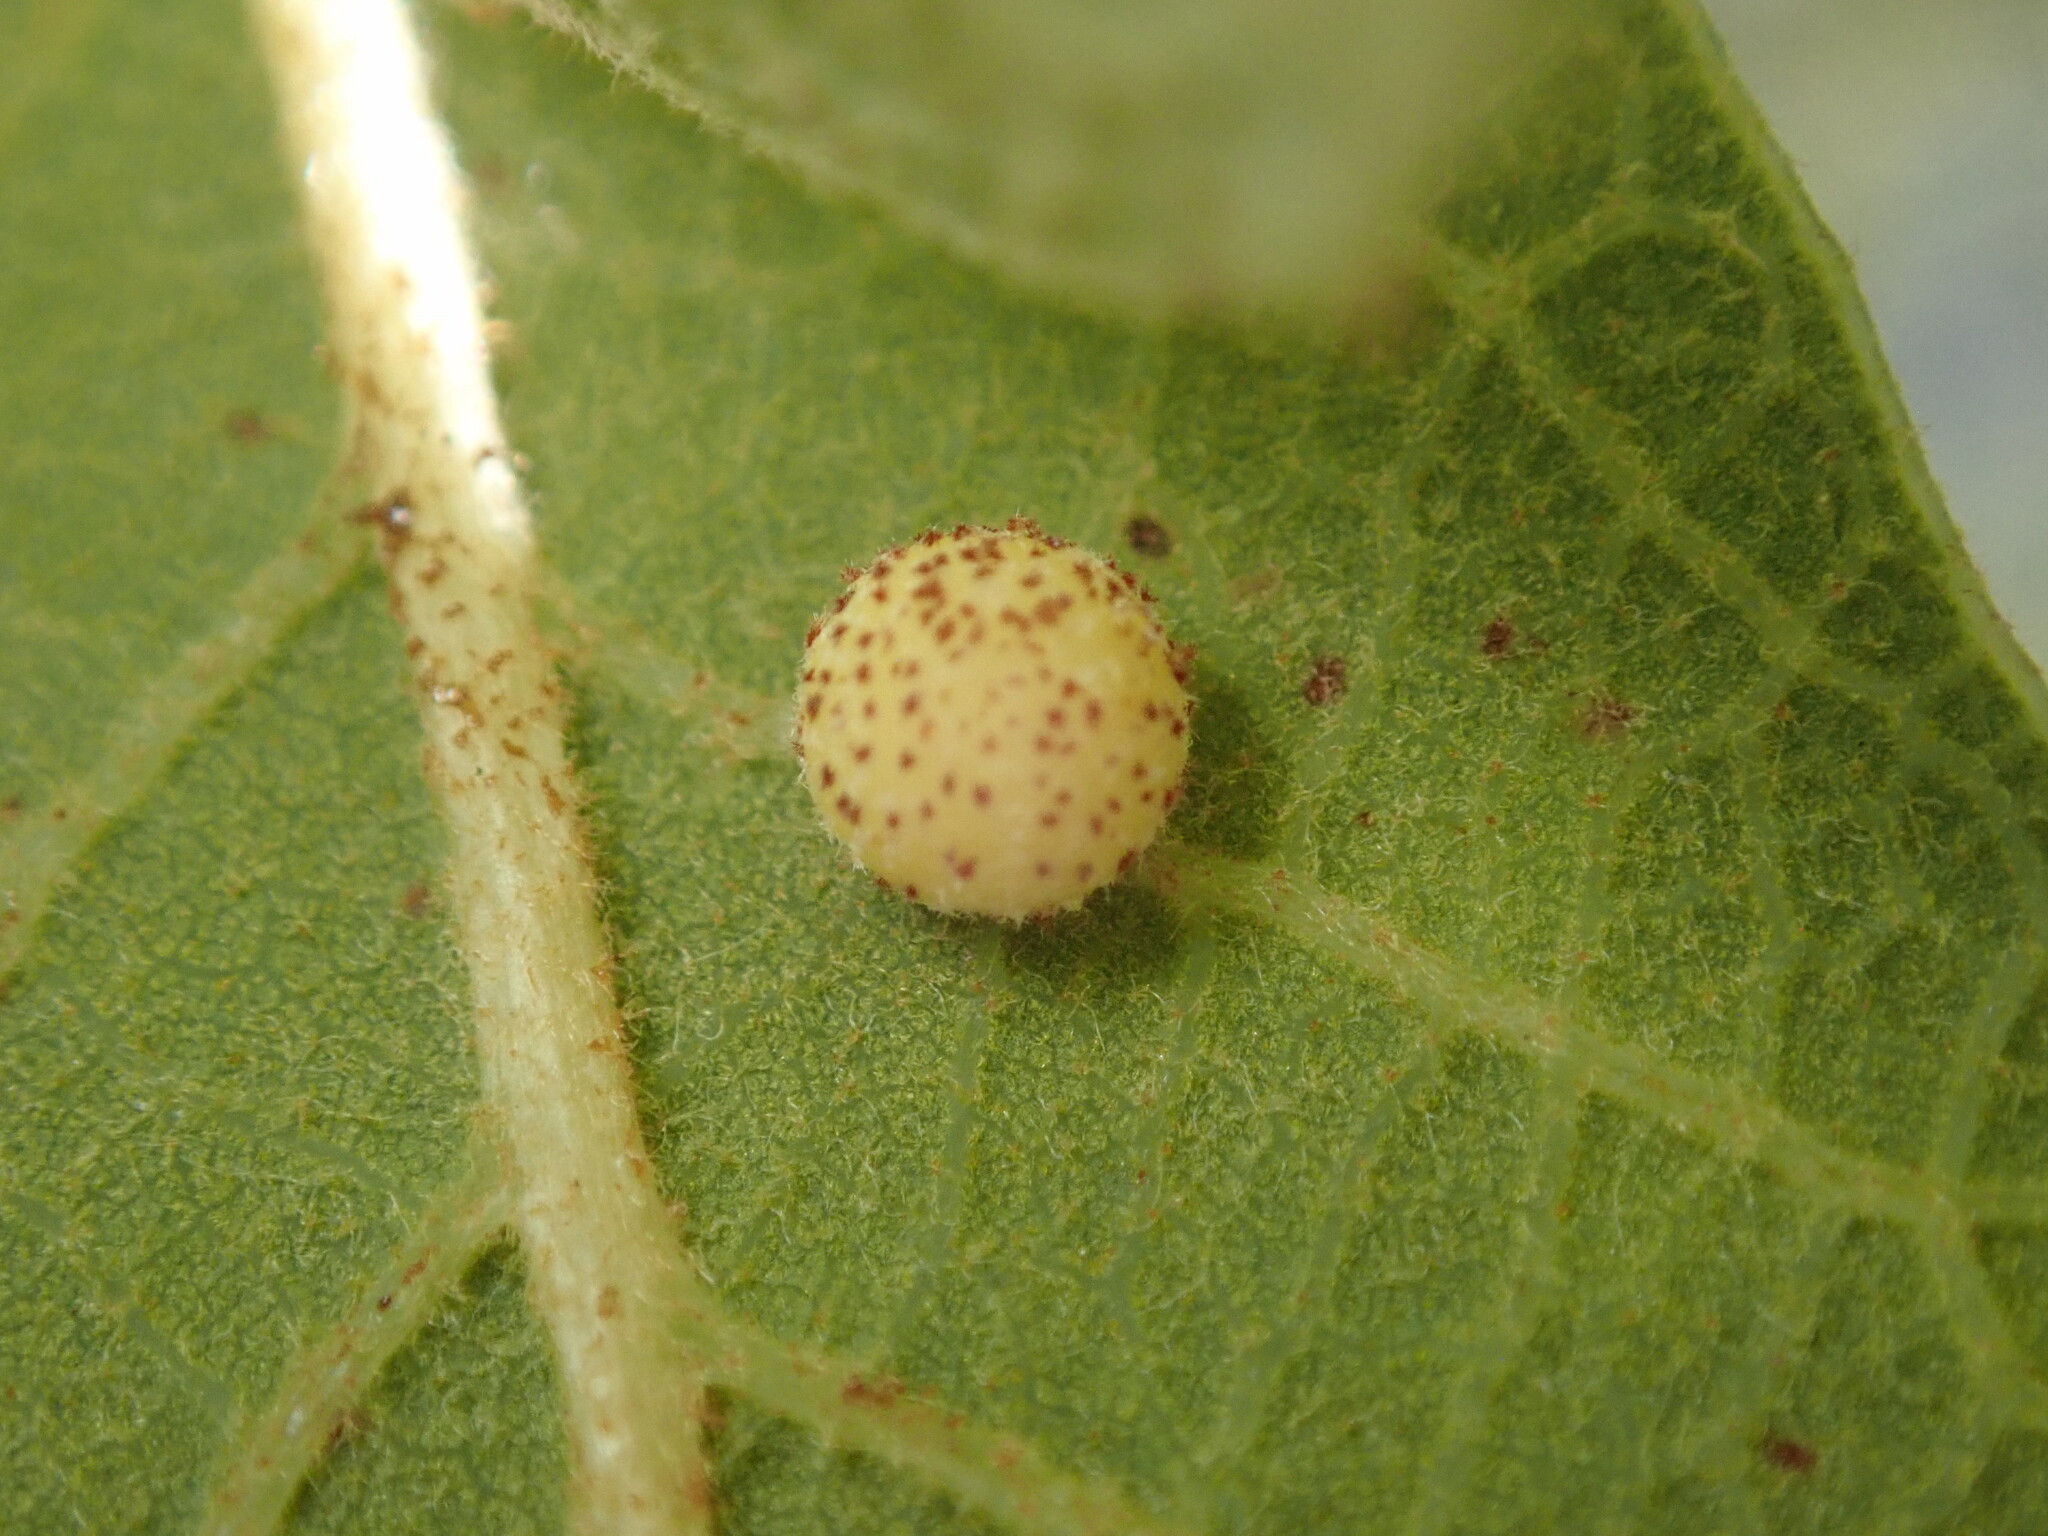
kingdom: Animalia
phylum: Arthropoda
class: Insecta
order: Hymenoptera
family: Cynipidae
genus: Cynips
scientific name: Cynips Antron tomkursari
